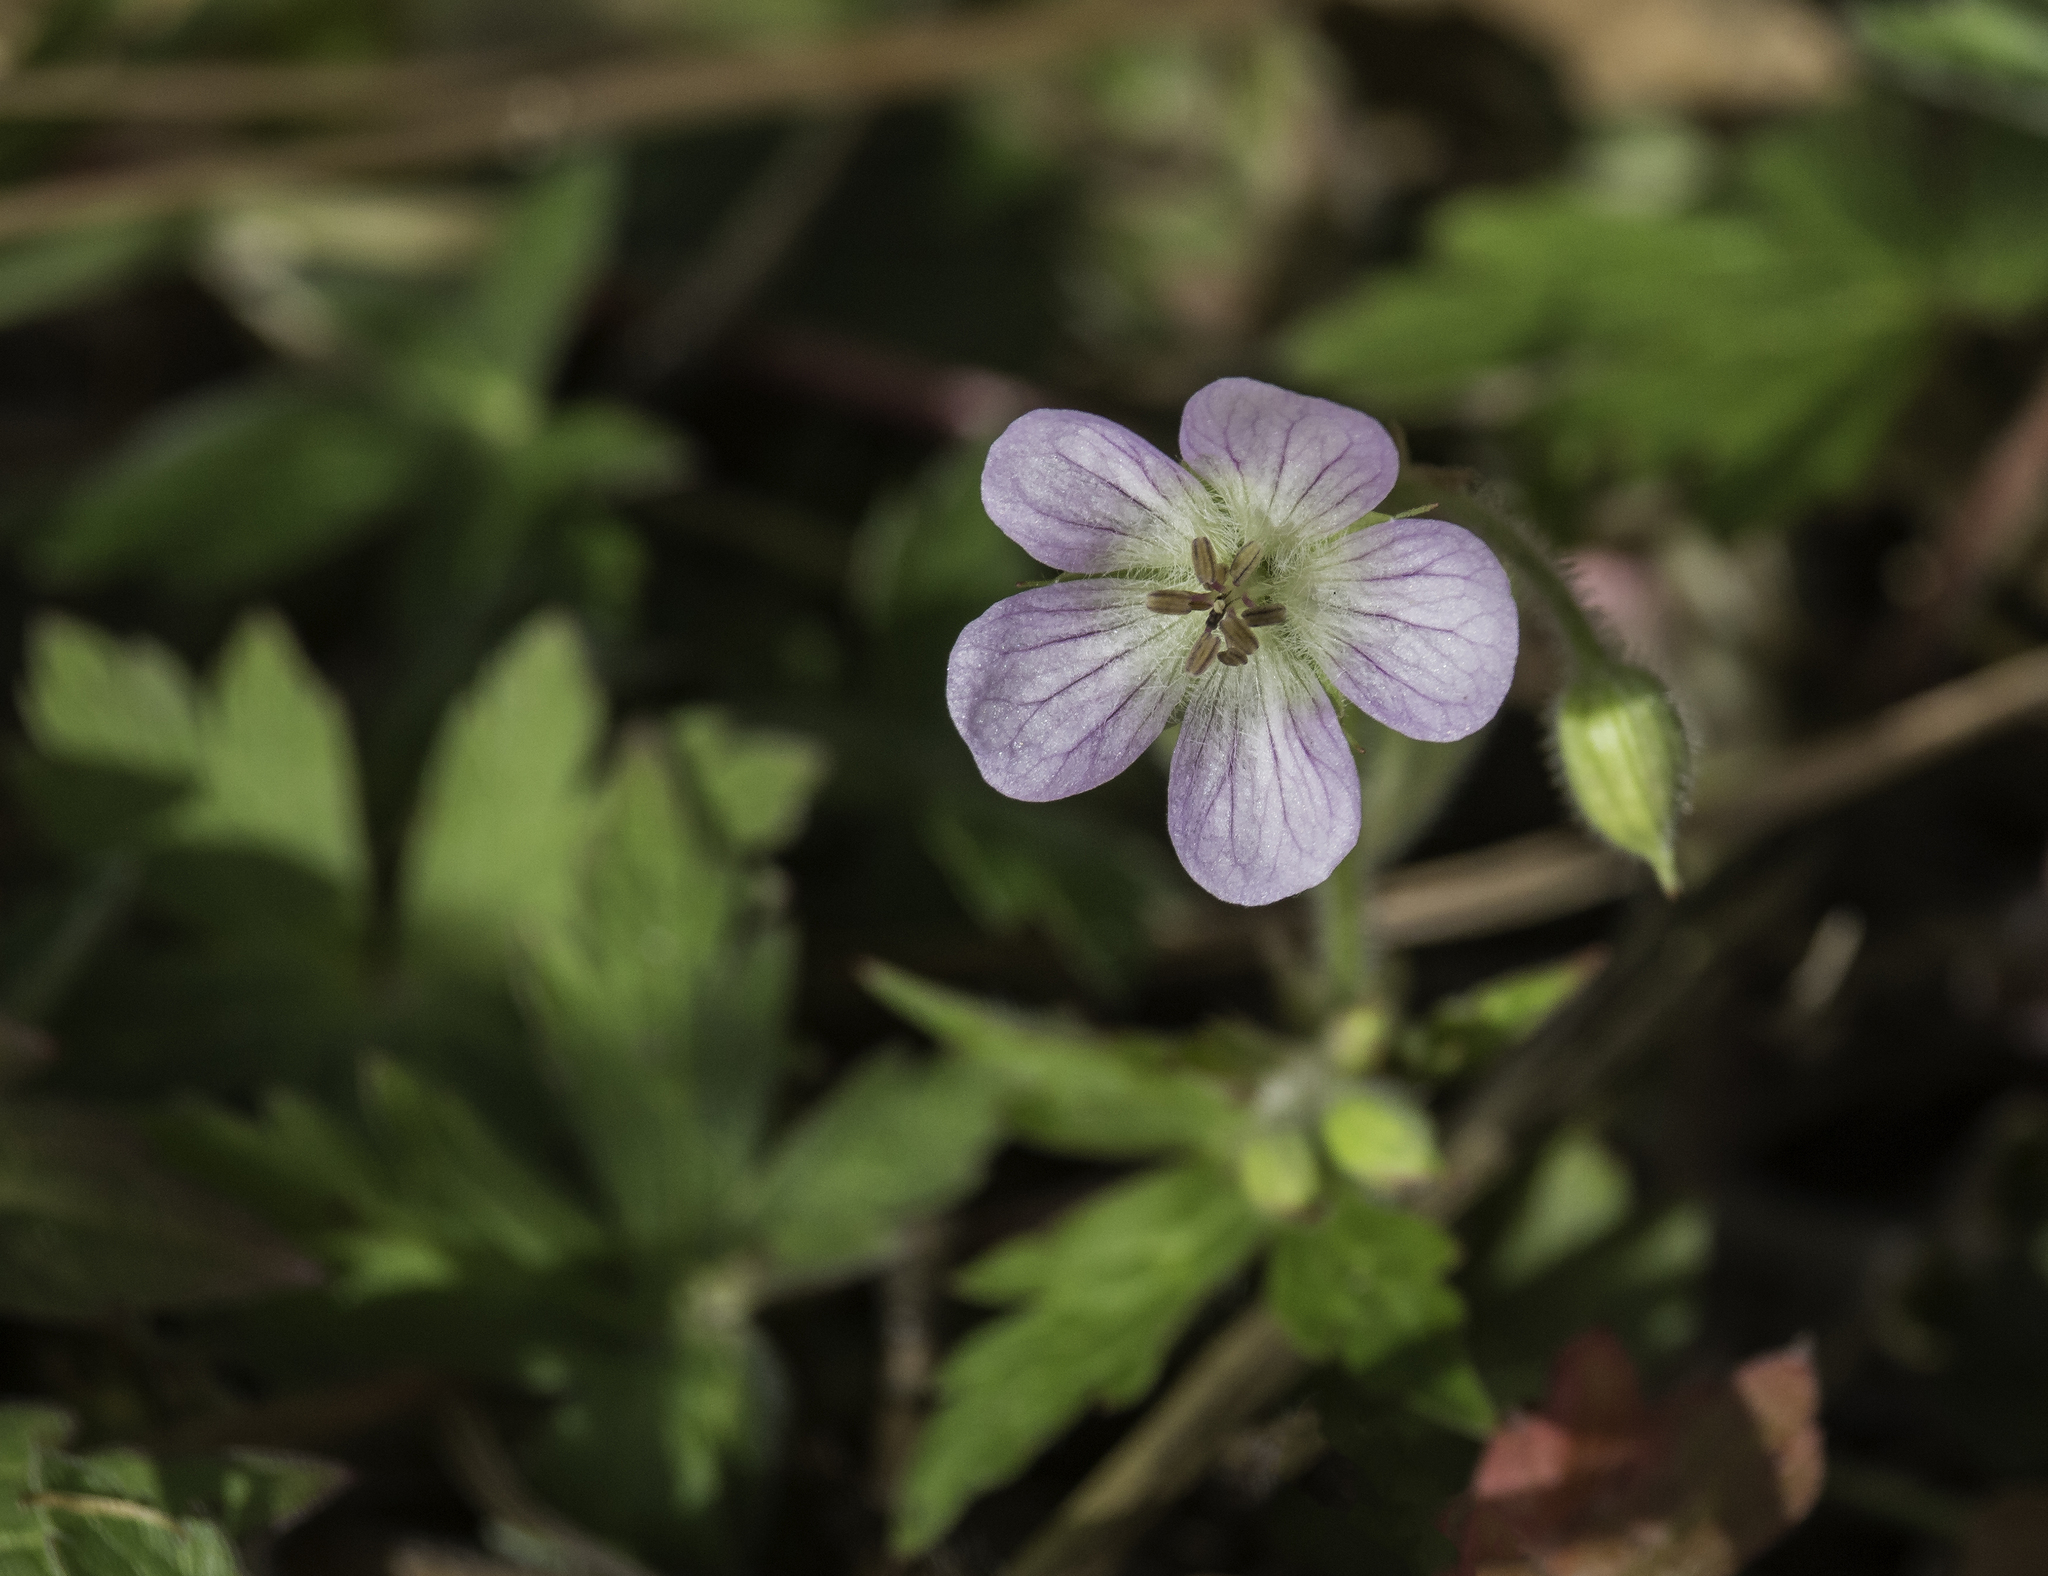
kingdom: Plantae
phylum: Tracheophyta
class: Magnoliopsida
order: Geraniales
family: Geraniaceae
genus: Geranium
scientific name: Geranium richardsonii
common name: Richardson's crane's-bill
